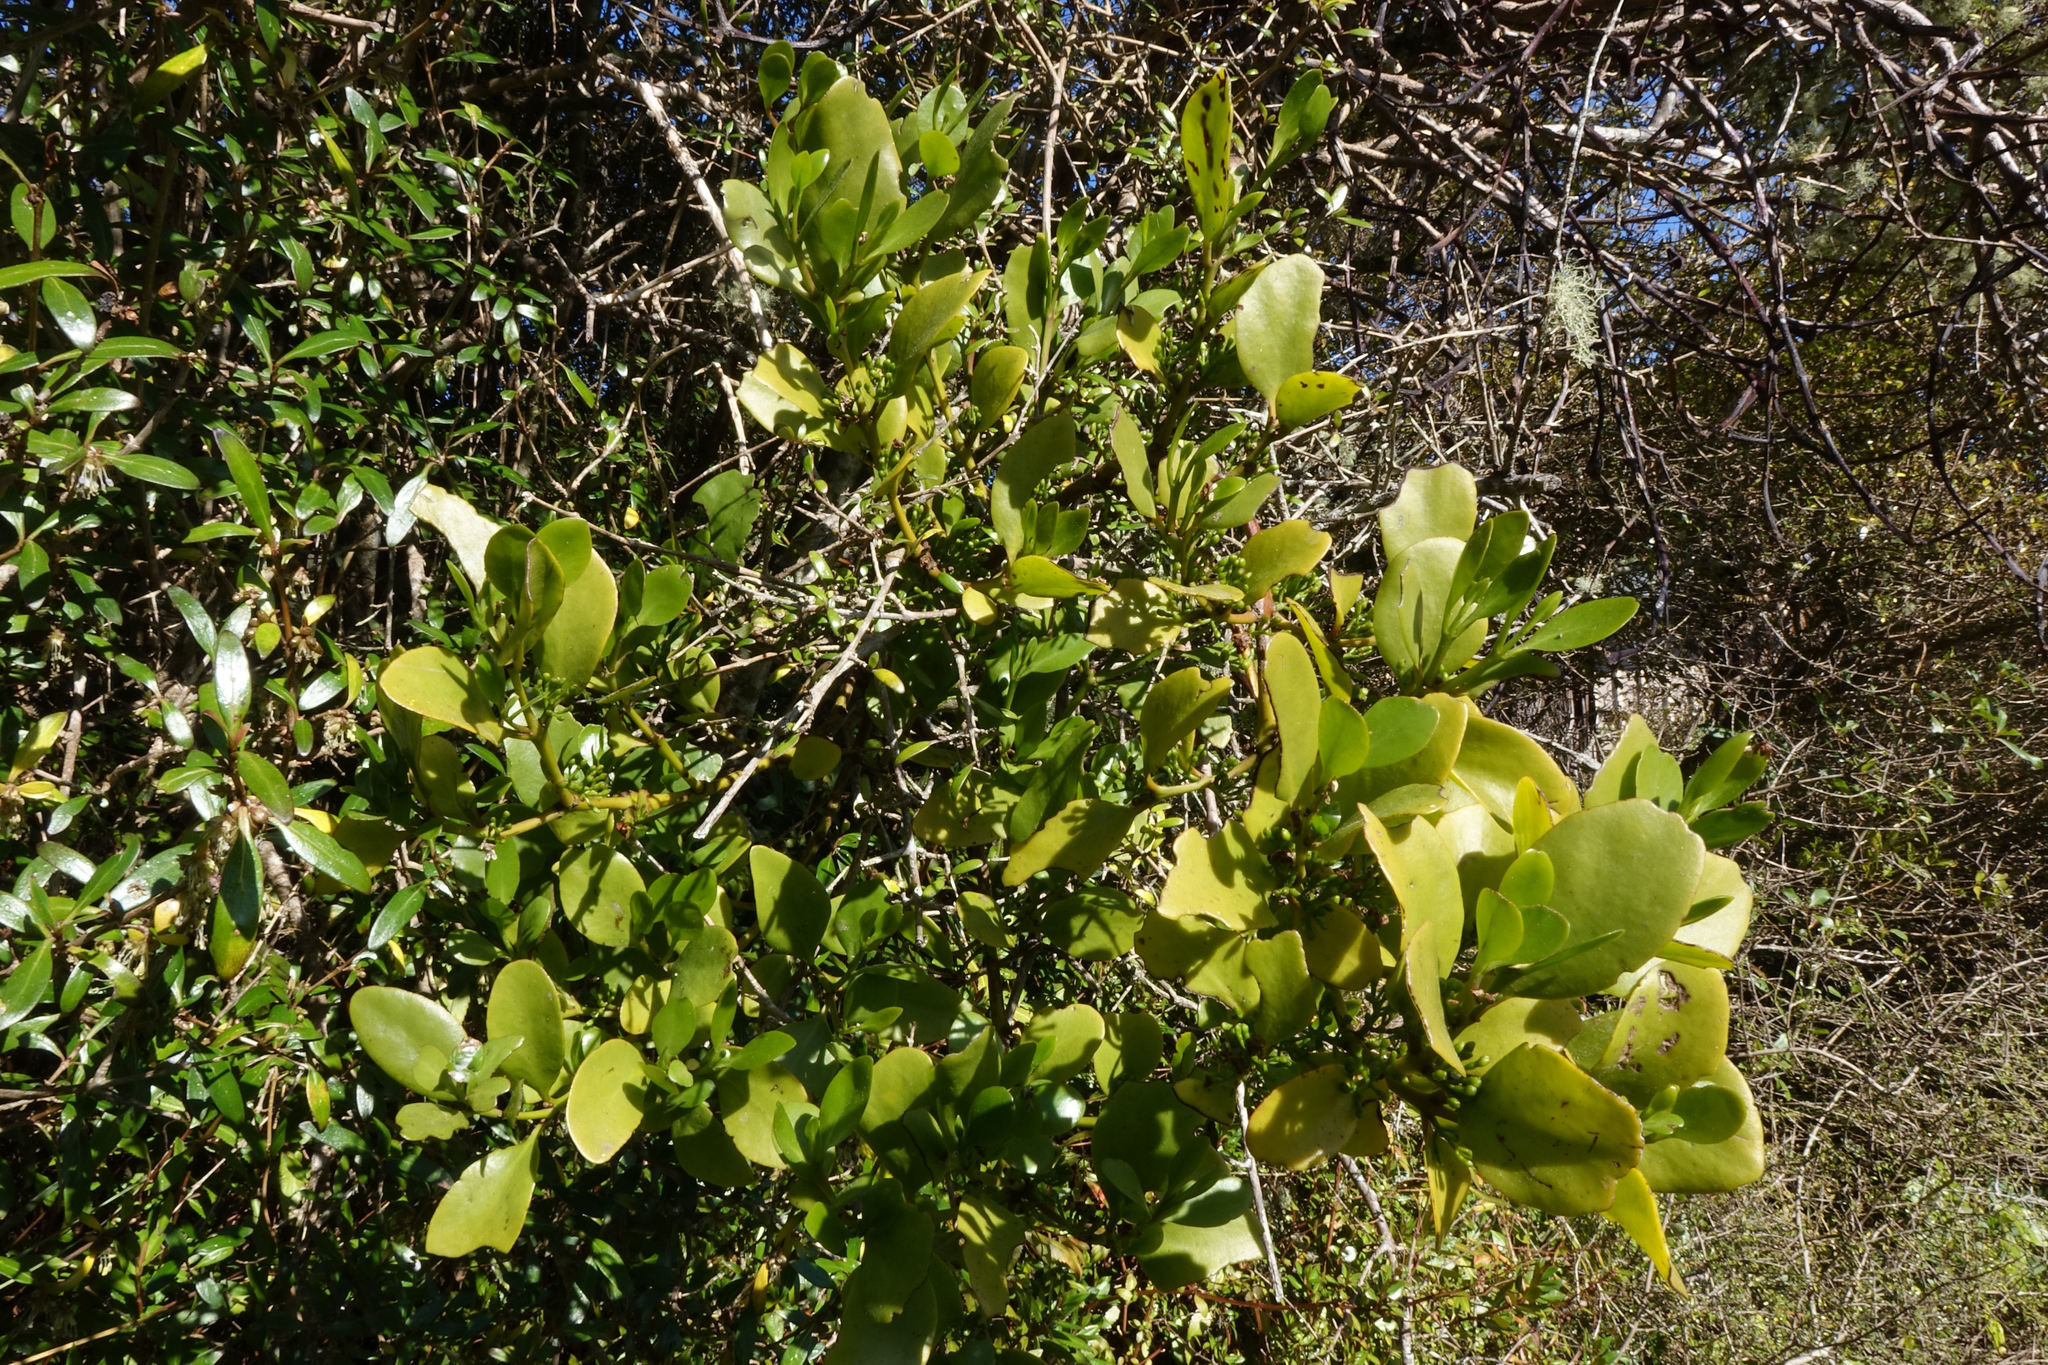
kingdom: Plantae
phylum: Tracheophyta
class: Magnoliopsida
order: Santalales
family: Loranthaceae
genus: Ileostylus
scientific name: Ileostylus micranthus
